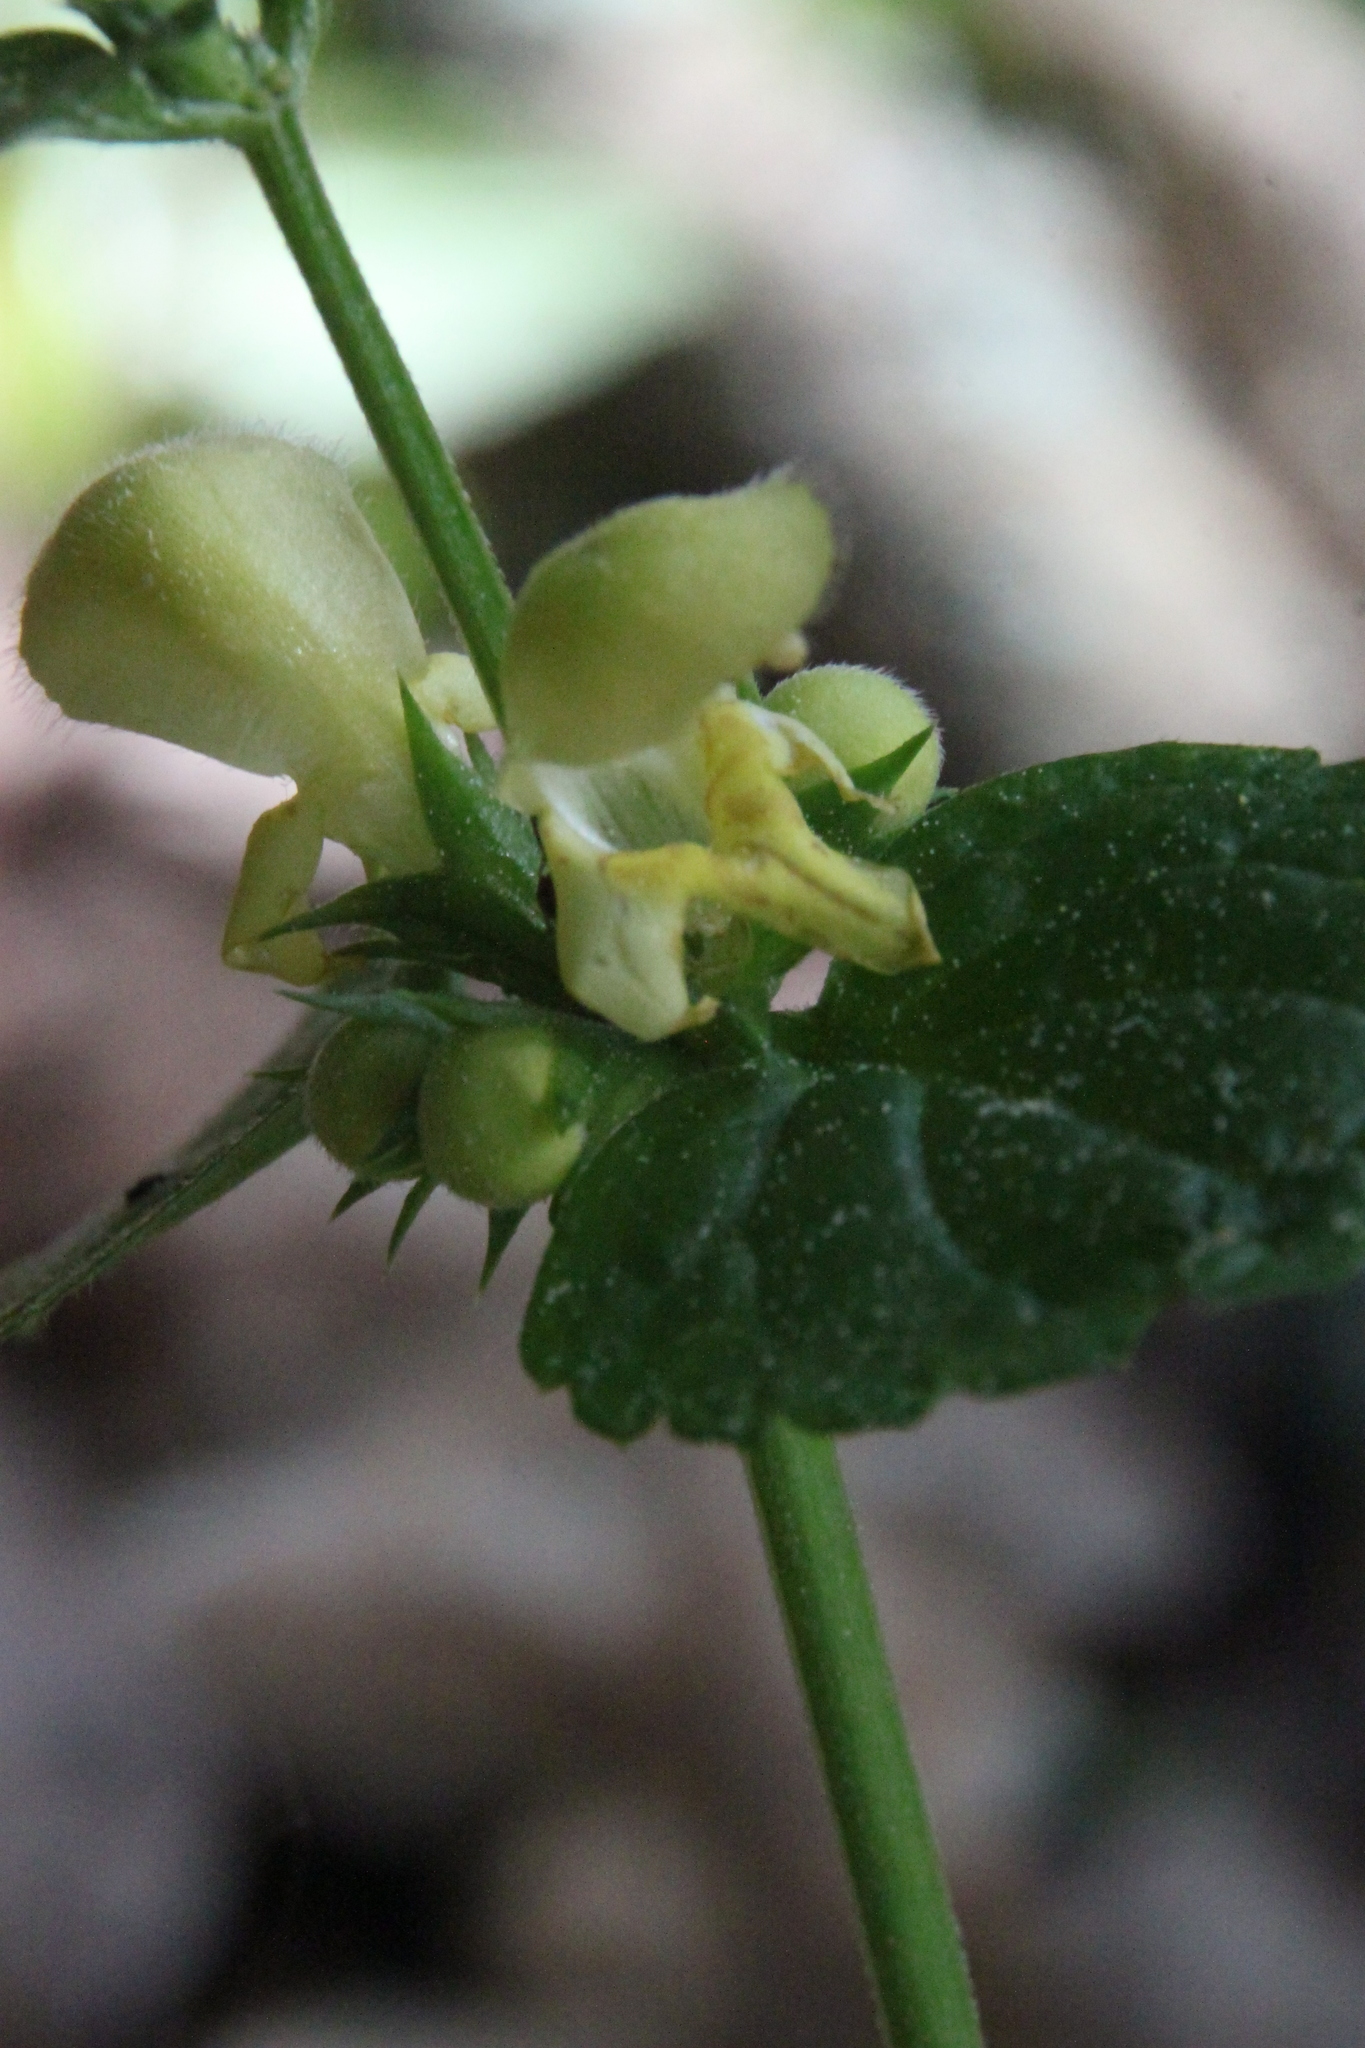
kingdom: Plantae
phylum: Tracheophyta
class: Magnoliopsida
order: Lamiales
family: Lamiaceae
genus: Lamium
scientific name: Lamium galeobdolon
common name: Yellow archangel
